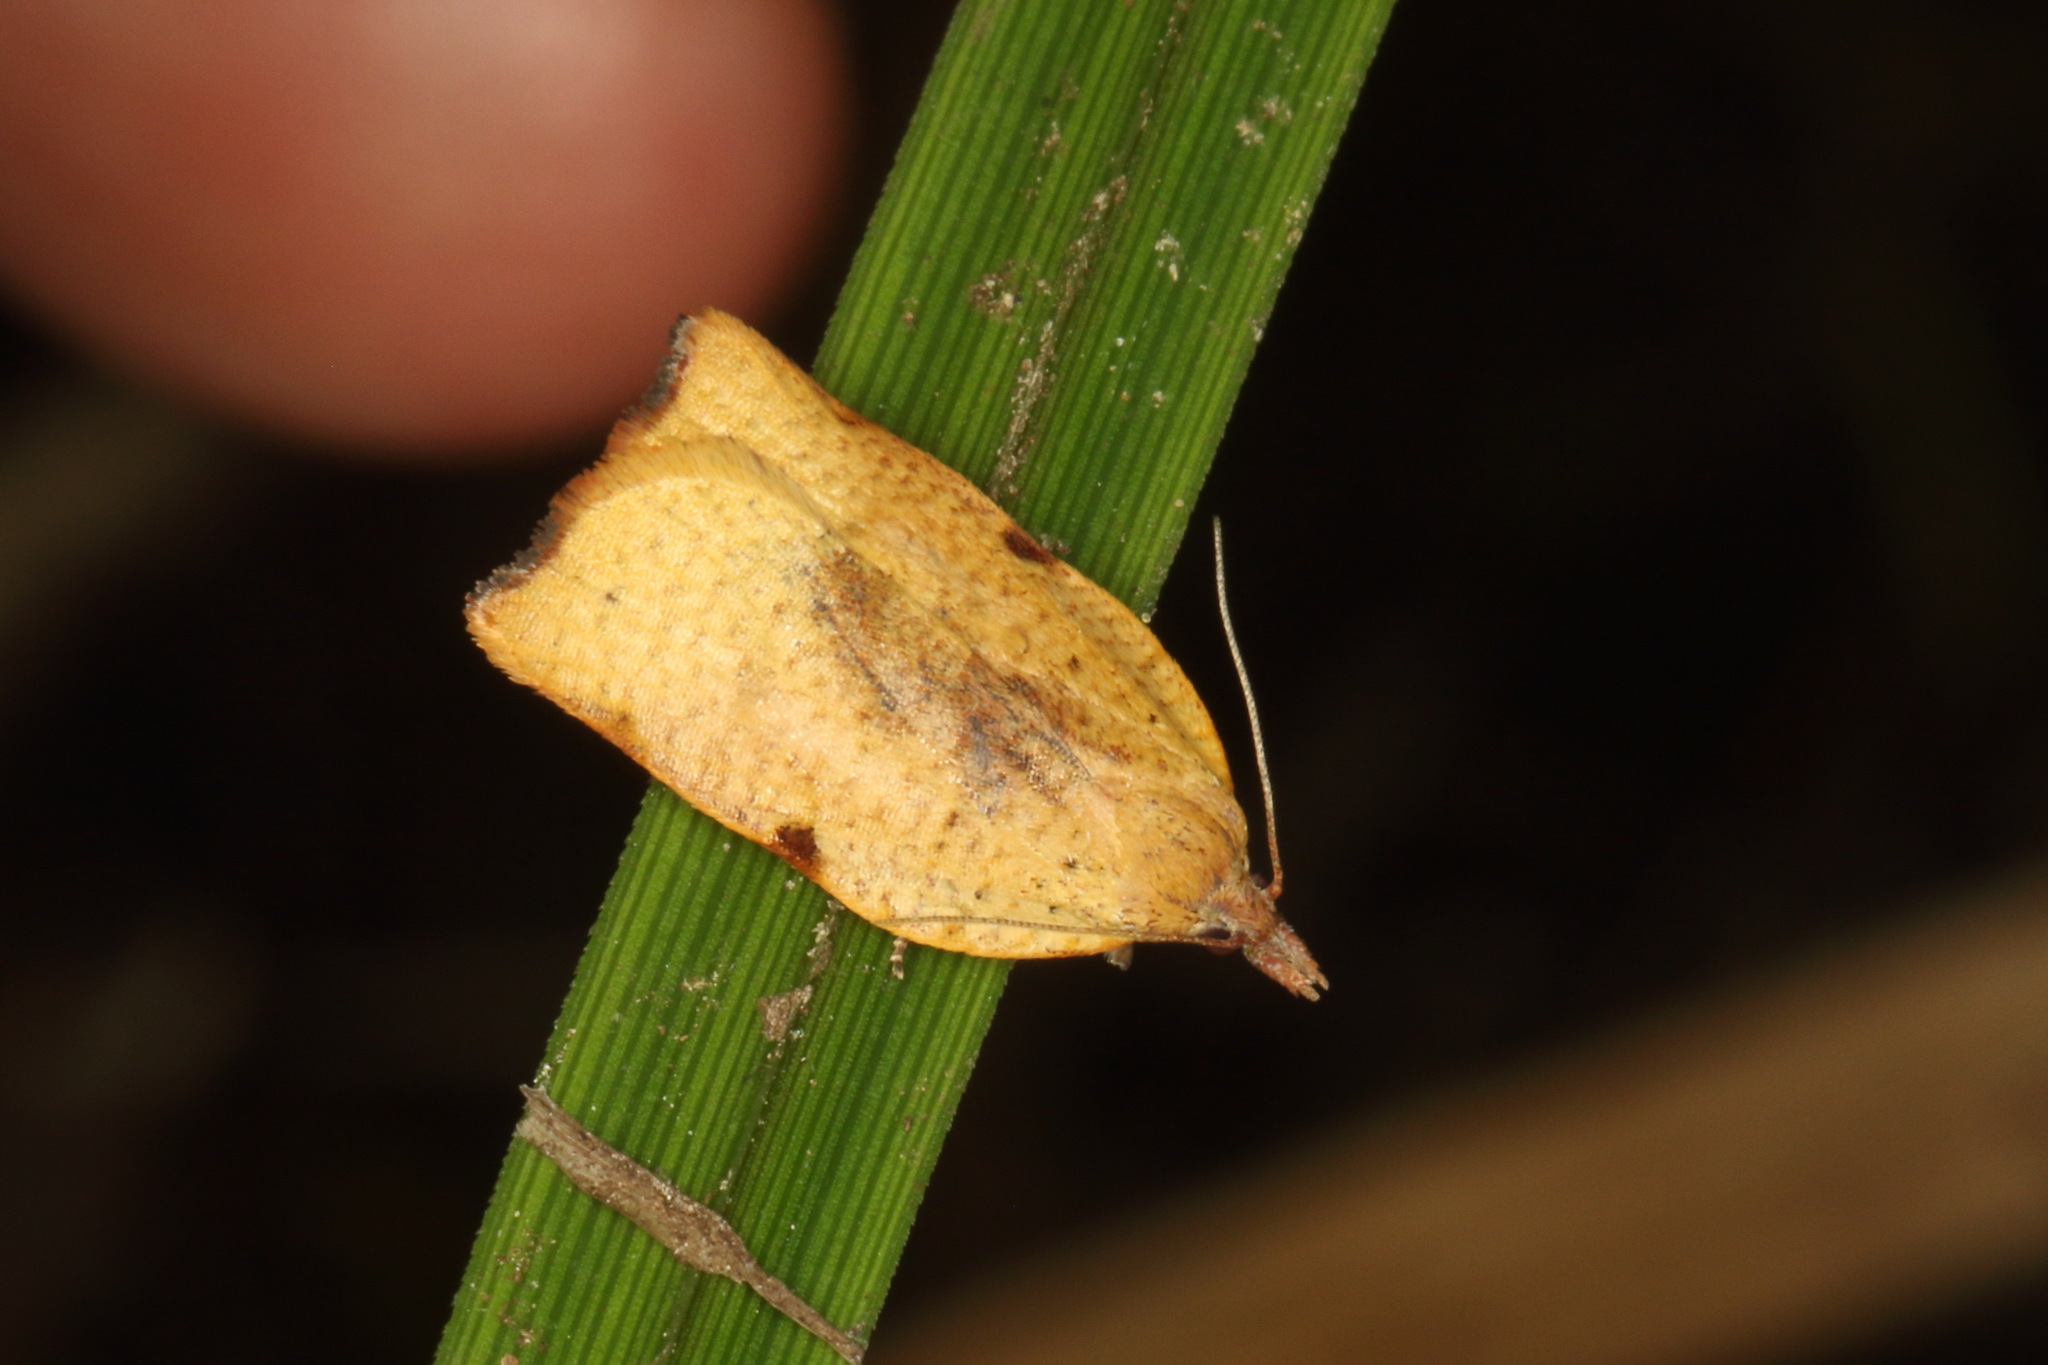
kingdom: Animalia
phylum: Arthropoda
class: Insecta
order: Lepidoptera
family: Tortricidae
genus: Apoctena
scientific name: Apoctena flavescens
